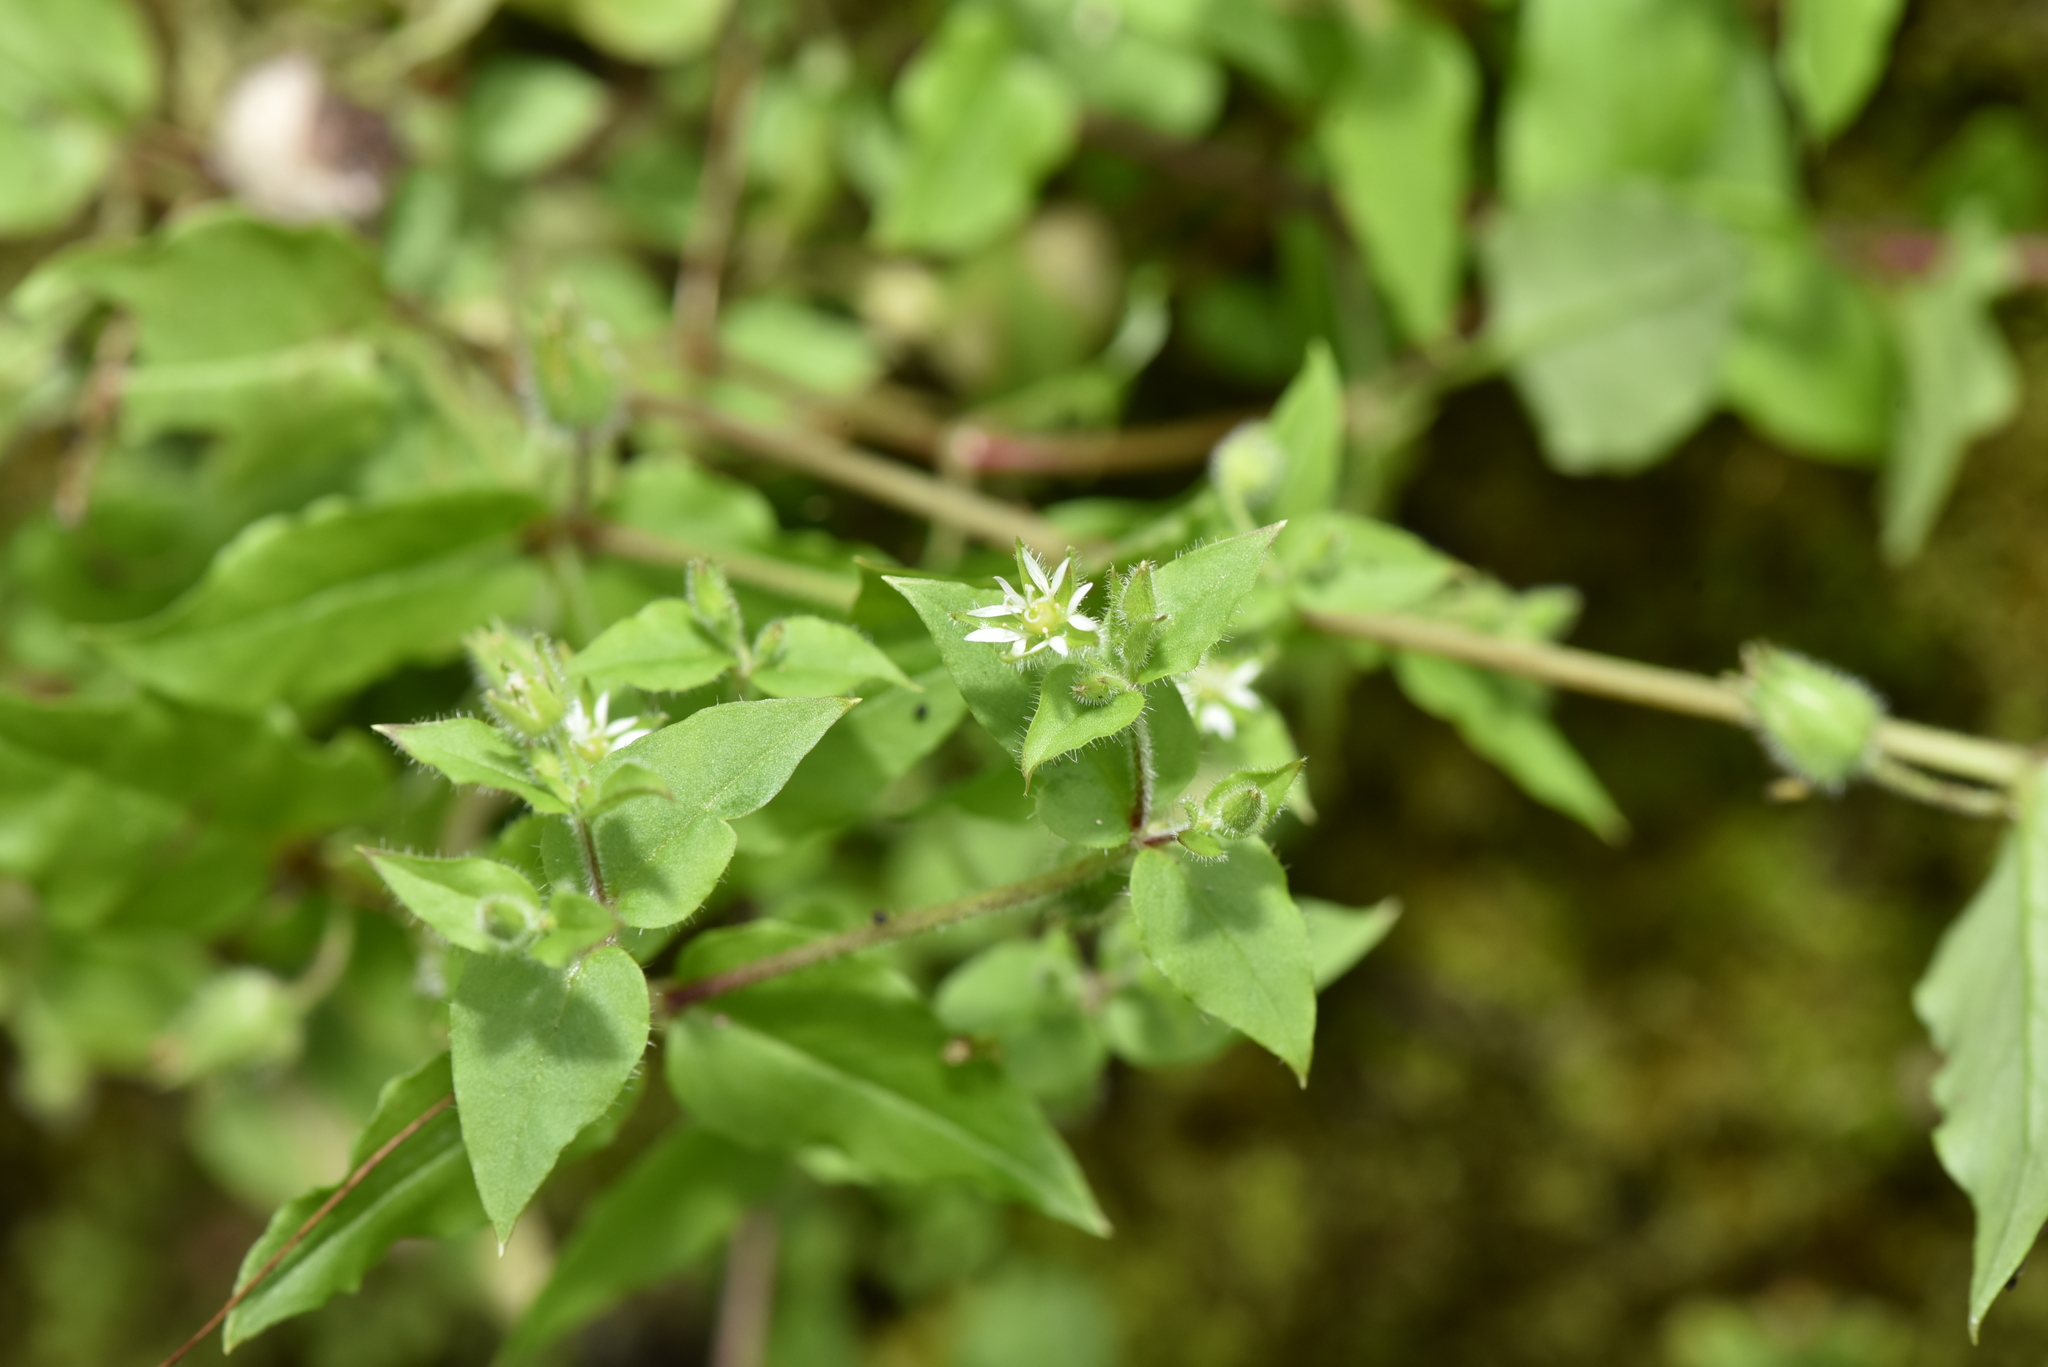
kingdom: Plantae
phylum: Tracheophyta
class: Magnoliopsida
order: Caryophyllales
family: Caryophyllaceae
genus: Stellaria
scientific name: Stellaria aquatica
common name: Water chickweed
